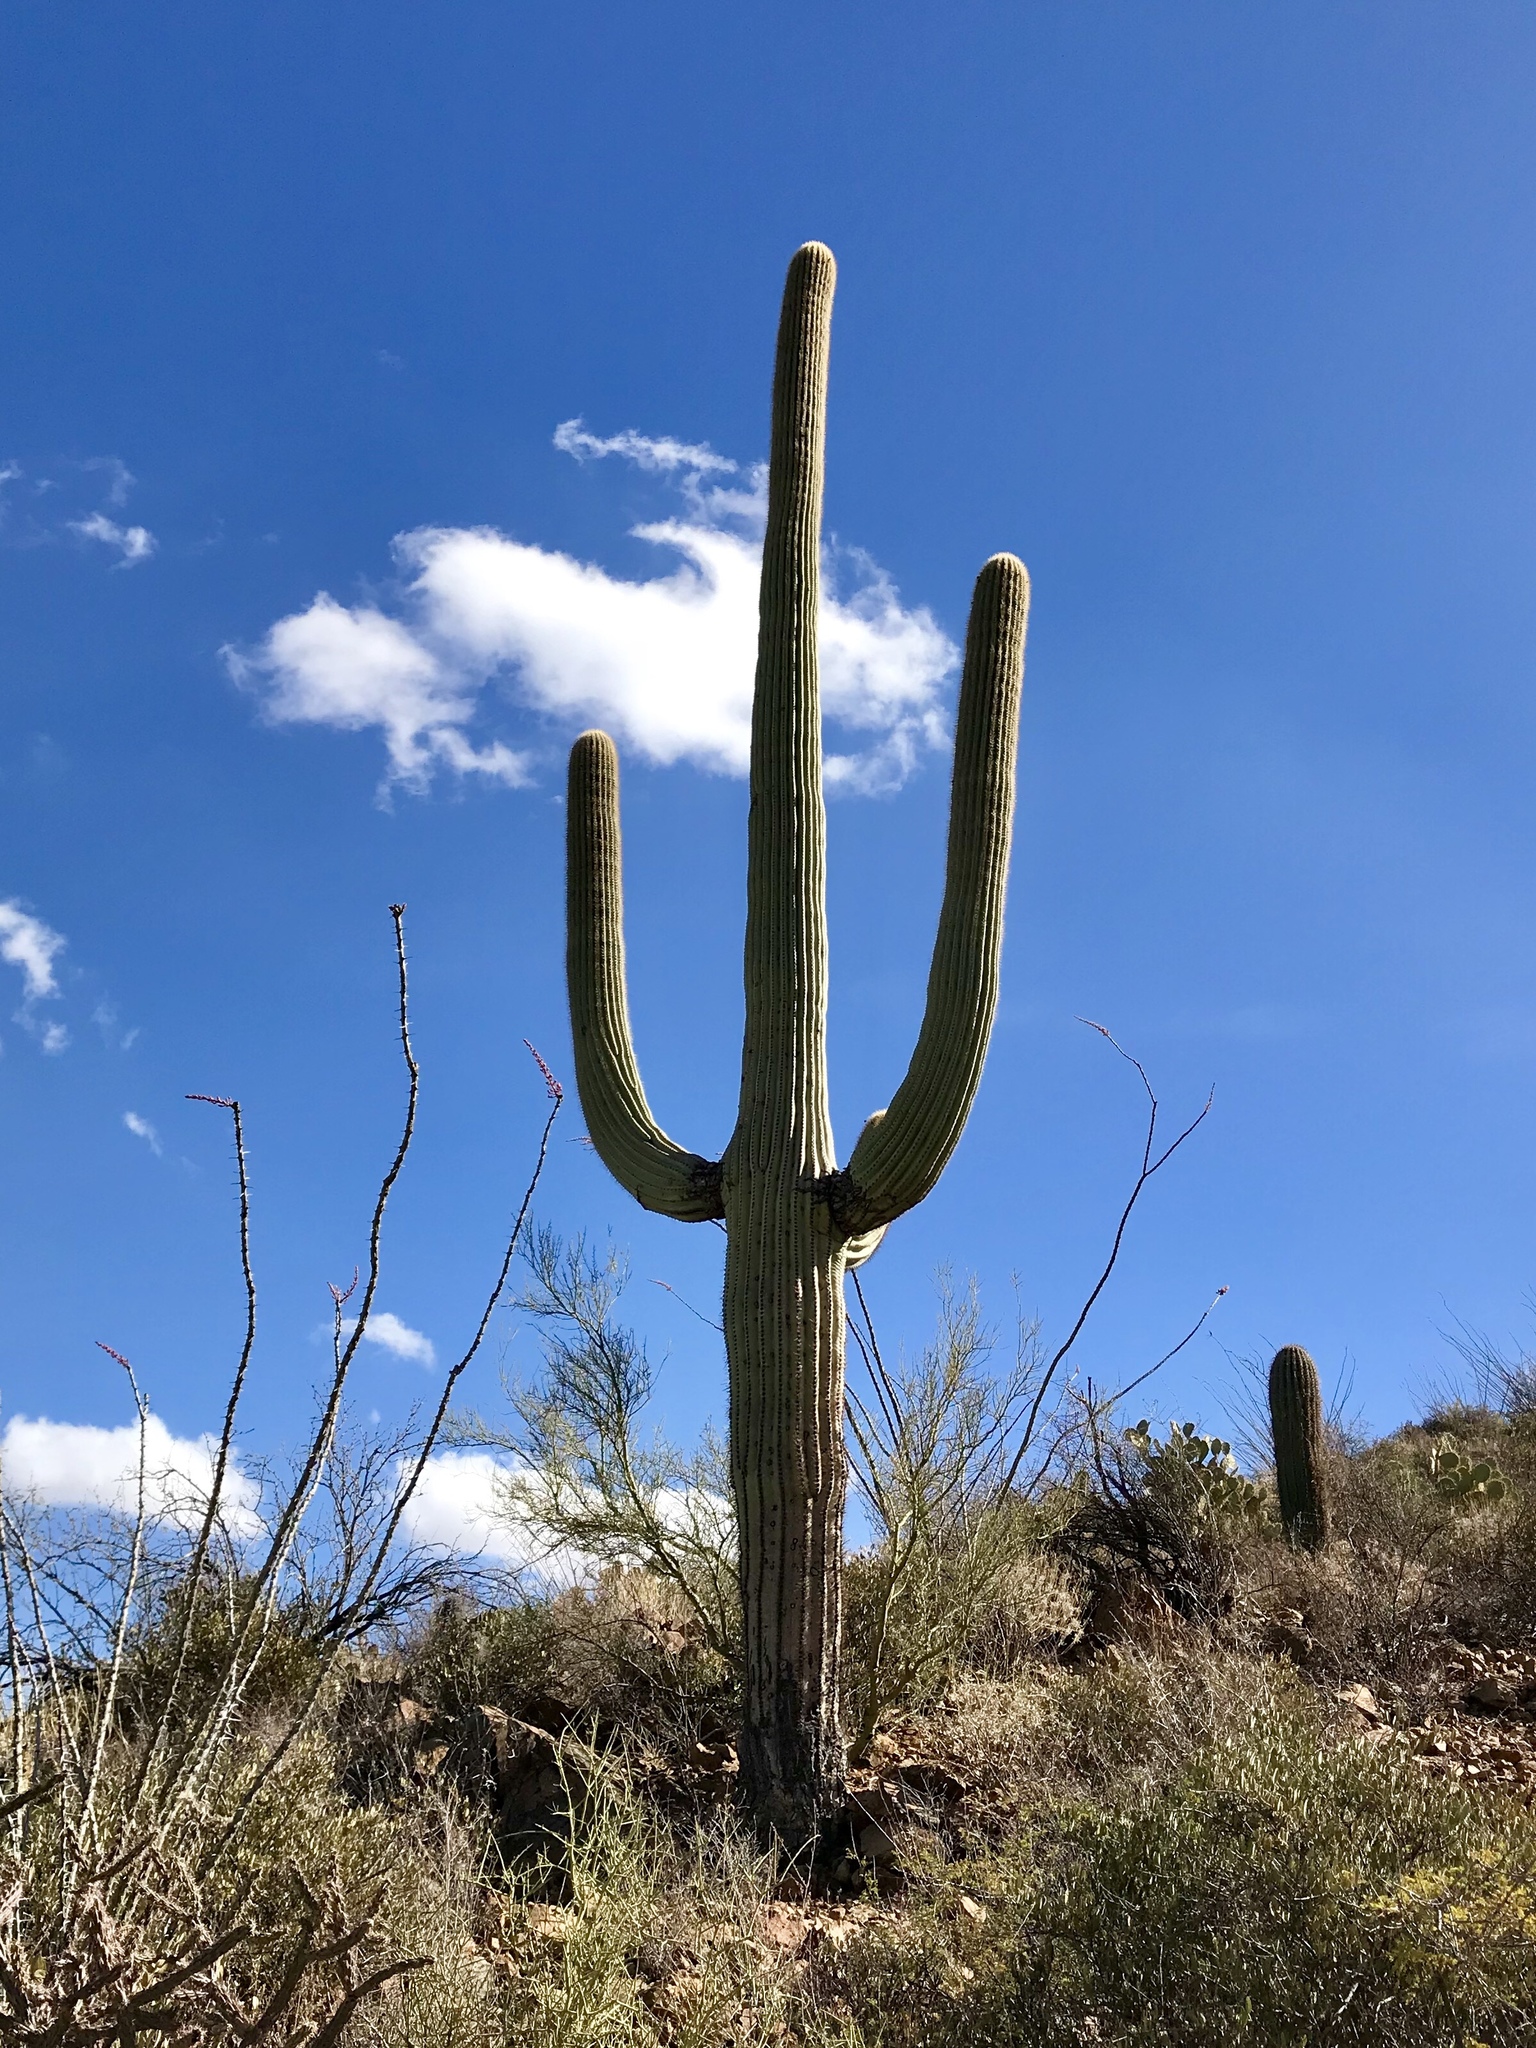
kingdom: Plantae
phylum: Tracheophyta
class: Magnoliopsida
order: Caryophyllales
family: Cactaceae
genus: Carnegiea
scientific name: Carnegiea gigantea
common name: Saguaro
